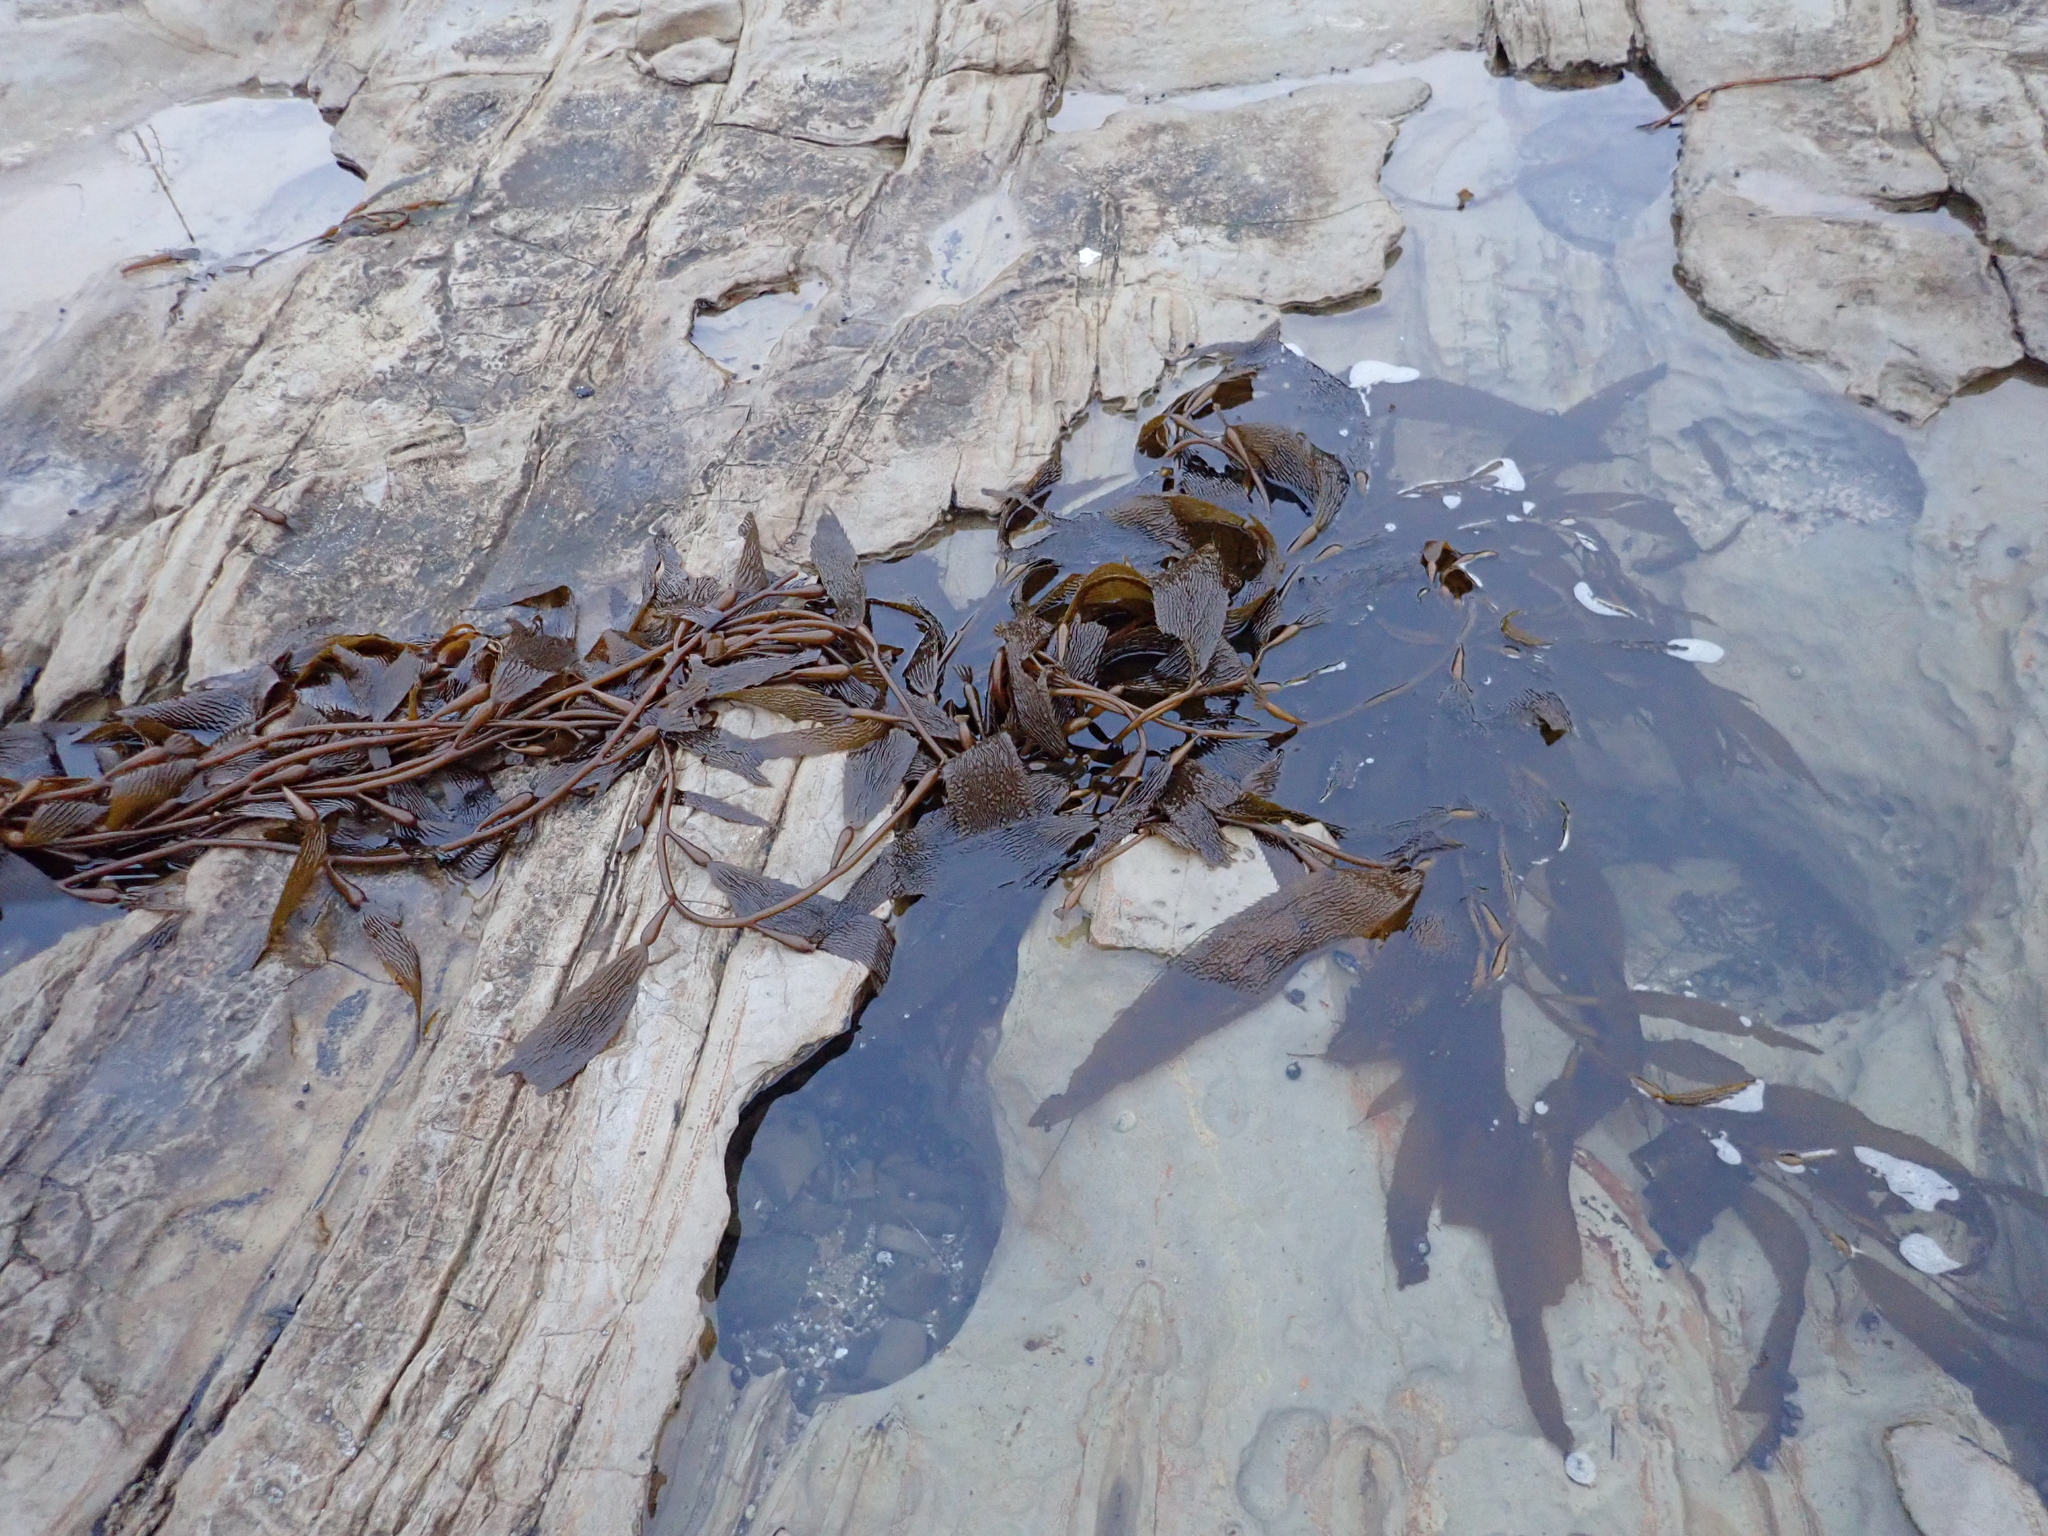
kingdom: Chromista
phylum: Ochrophyta
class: Phaeophyceae
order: Laminariales
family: Laminariaceae
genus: Macrocystis
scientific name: Macrocystis pyrifera
